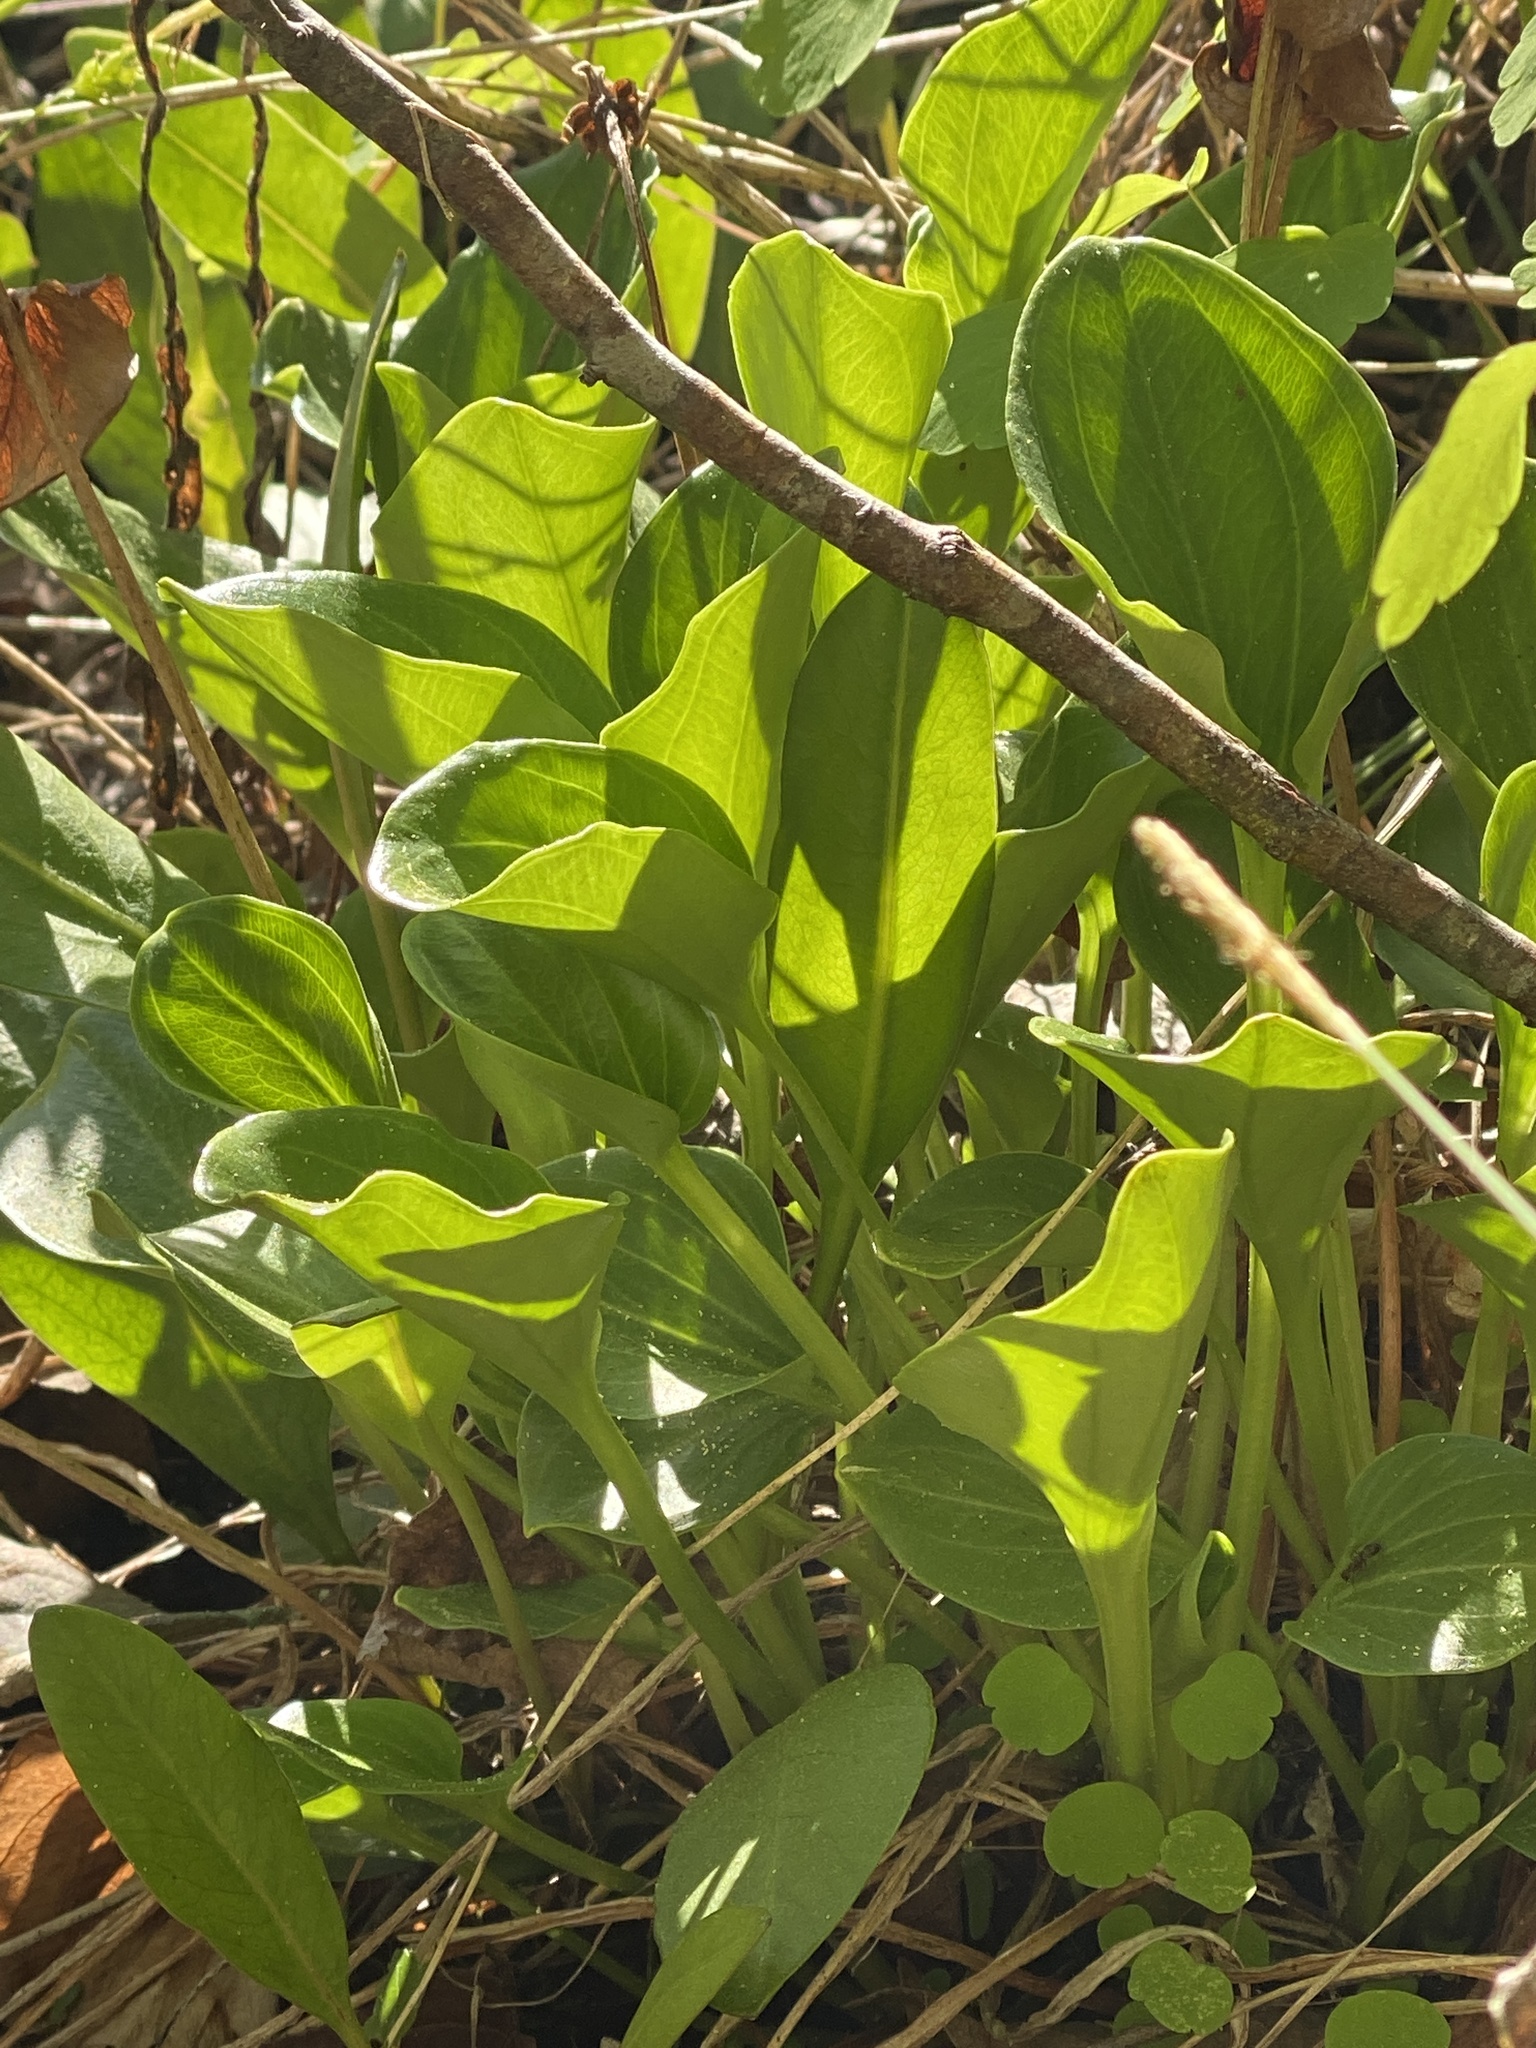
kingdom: Plantae
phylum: Tracheophyta
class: Magnoliopsida
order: Celastrales
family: Parnassiaceae
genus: Parnassia
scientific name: Parnassia grandifolia
